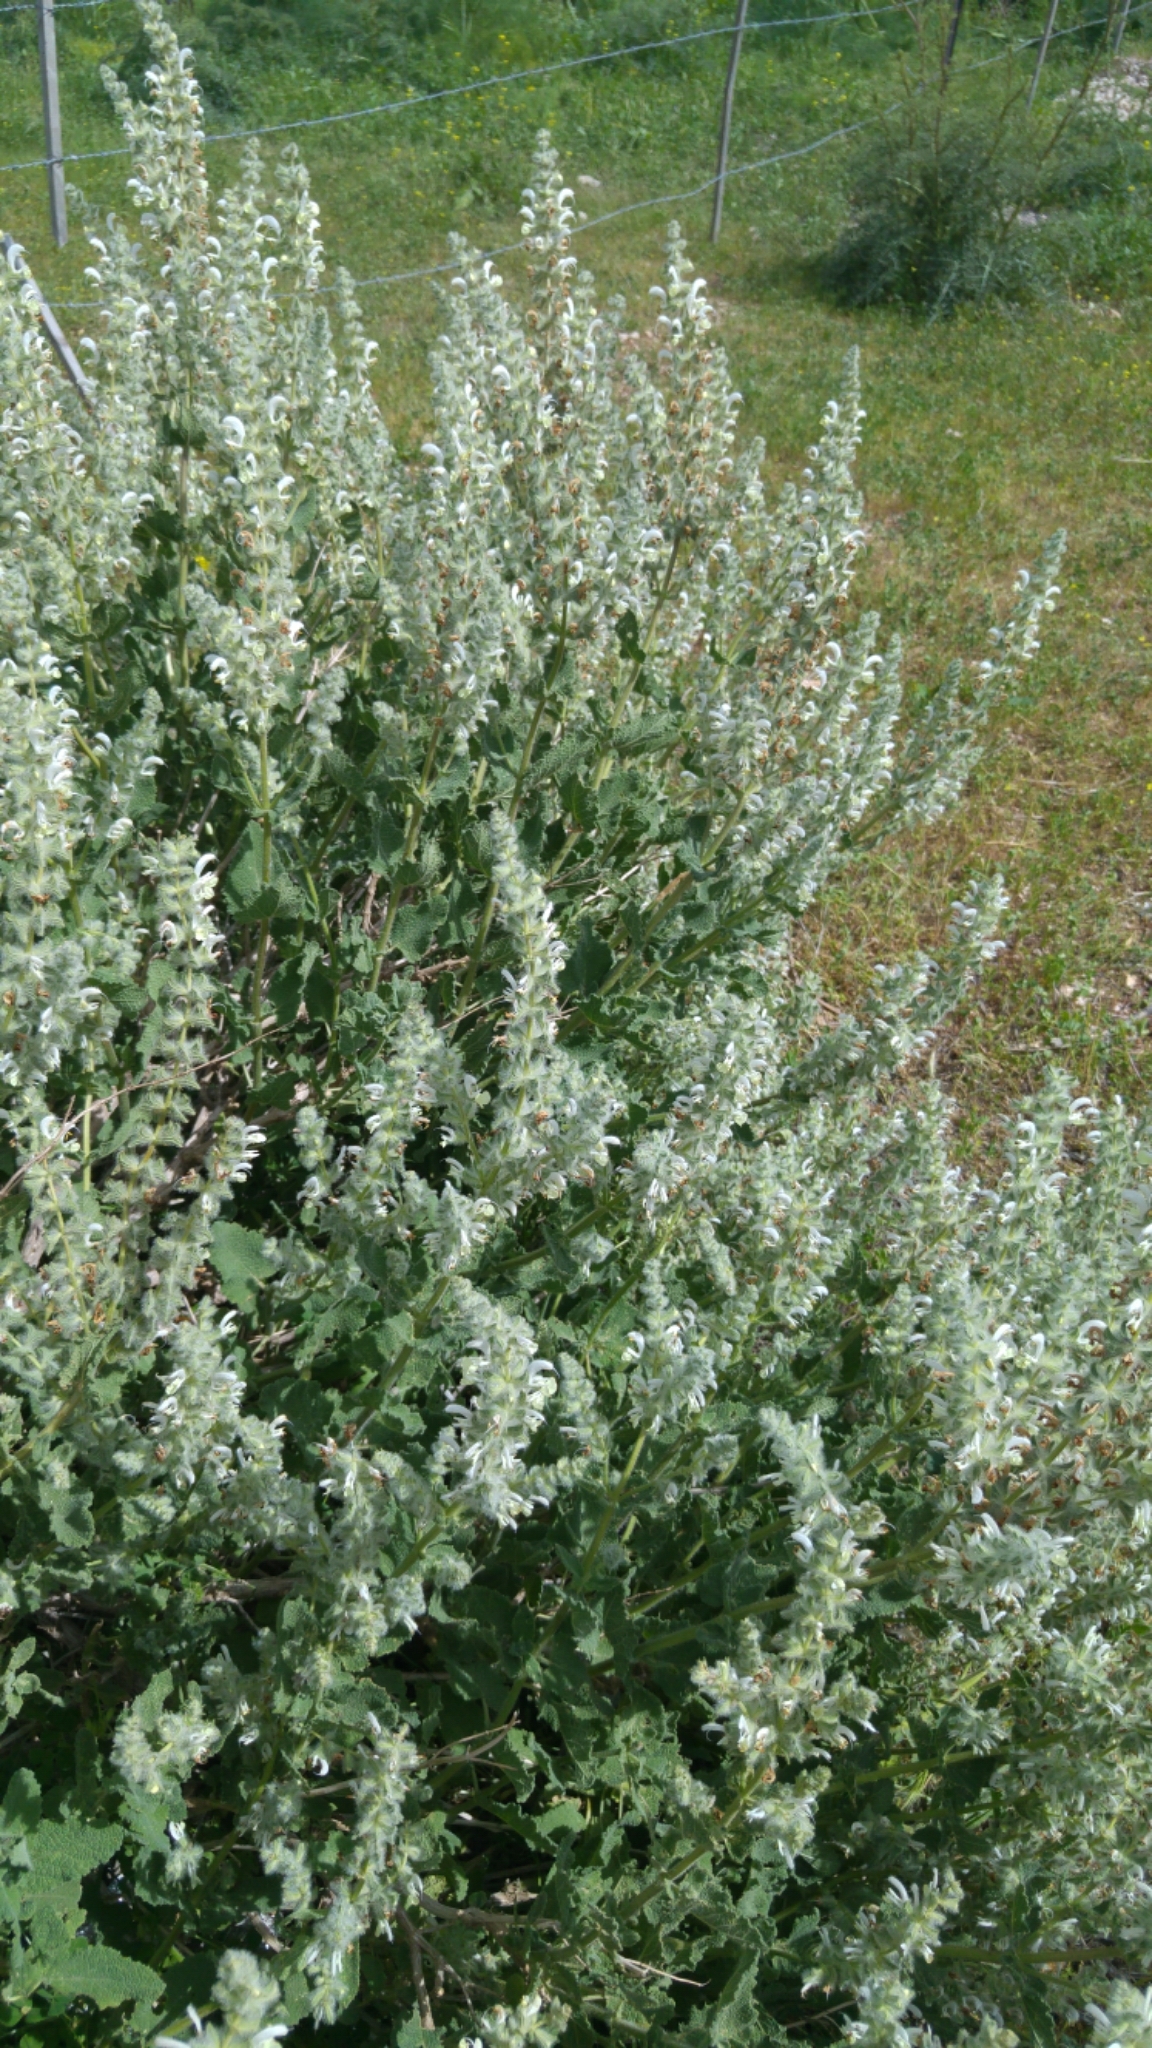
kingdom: Plantae
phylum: Tracheophyta
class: Magnoliopsida
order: Lamiales
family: Lamiaceae
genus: Salvia
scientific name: Salvia dominica
